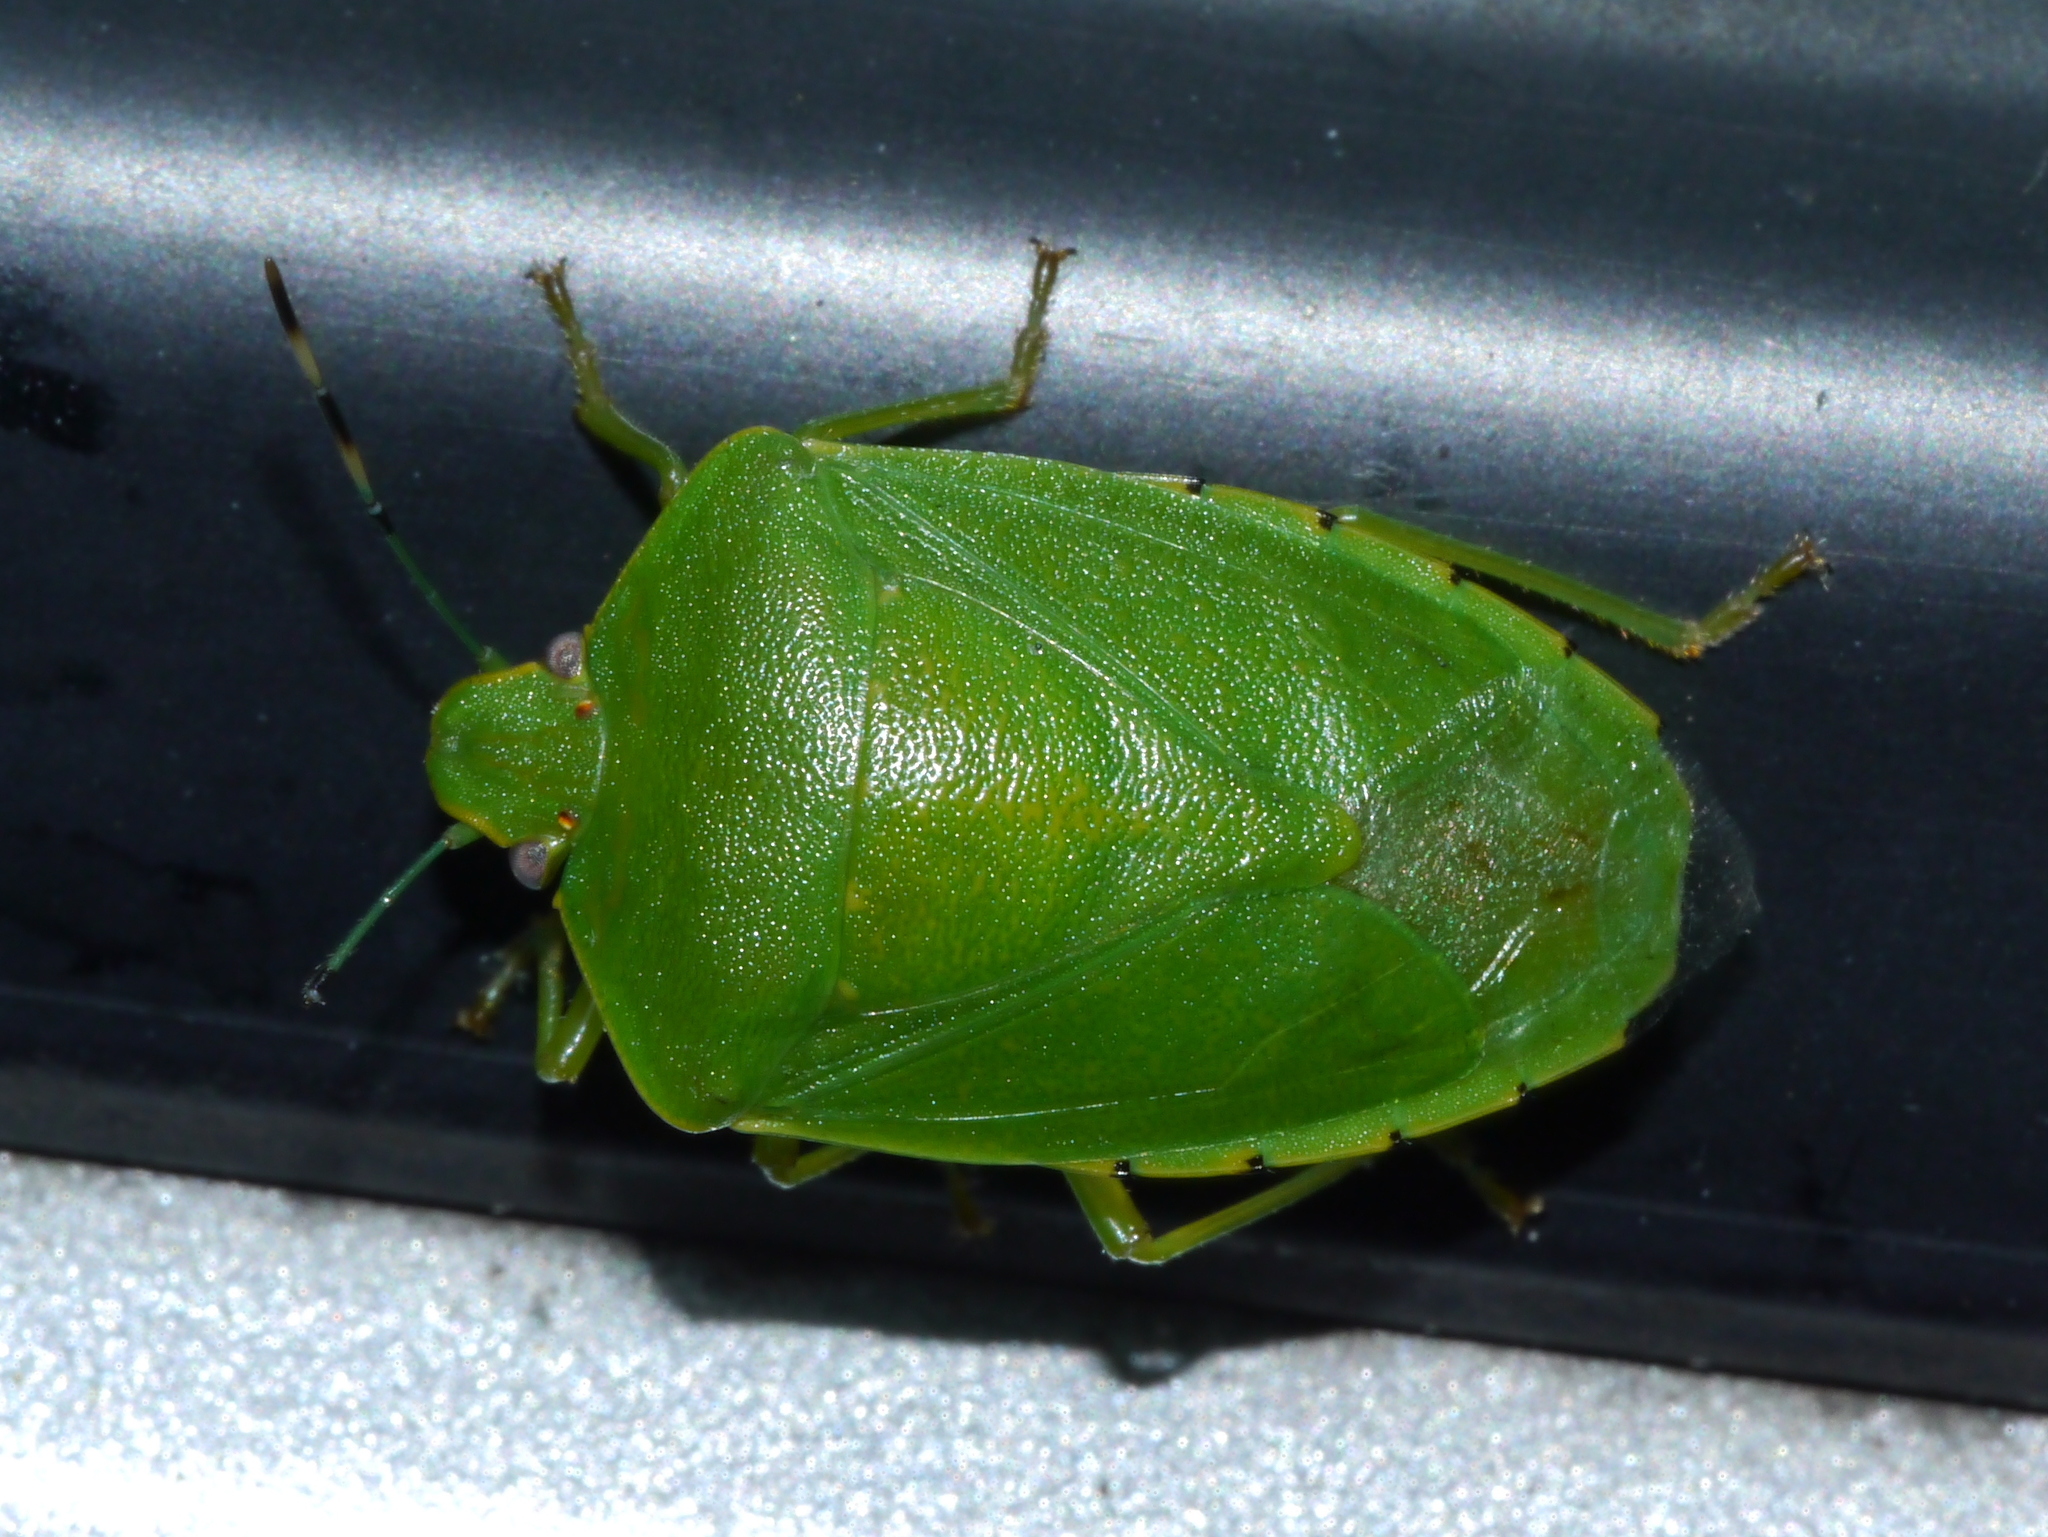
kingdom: Animalia
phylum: Arthropoda
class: Insecta
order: Hemiptera
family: Pentatomidae
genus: Chinavia
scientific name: Chinavia hilaris
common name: Green stink bug
